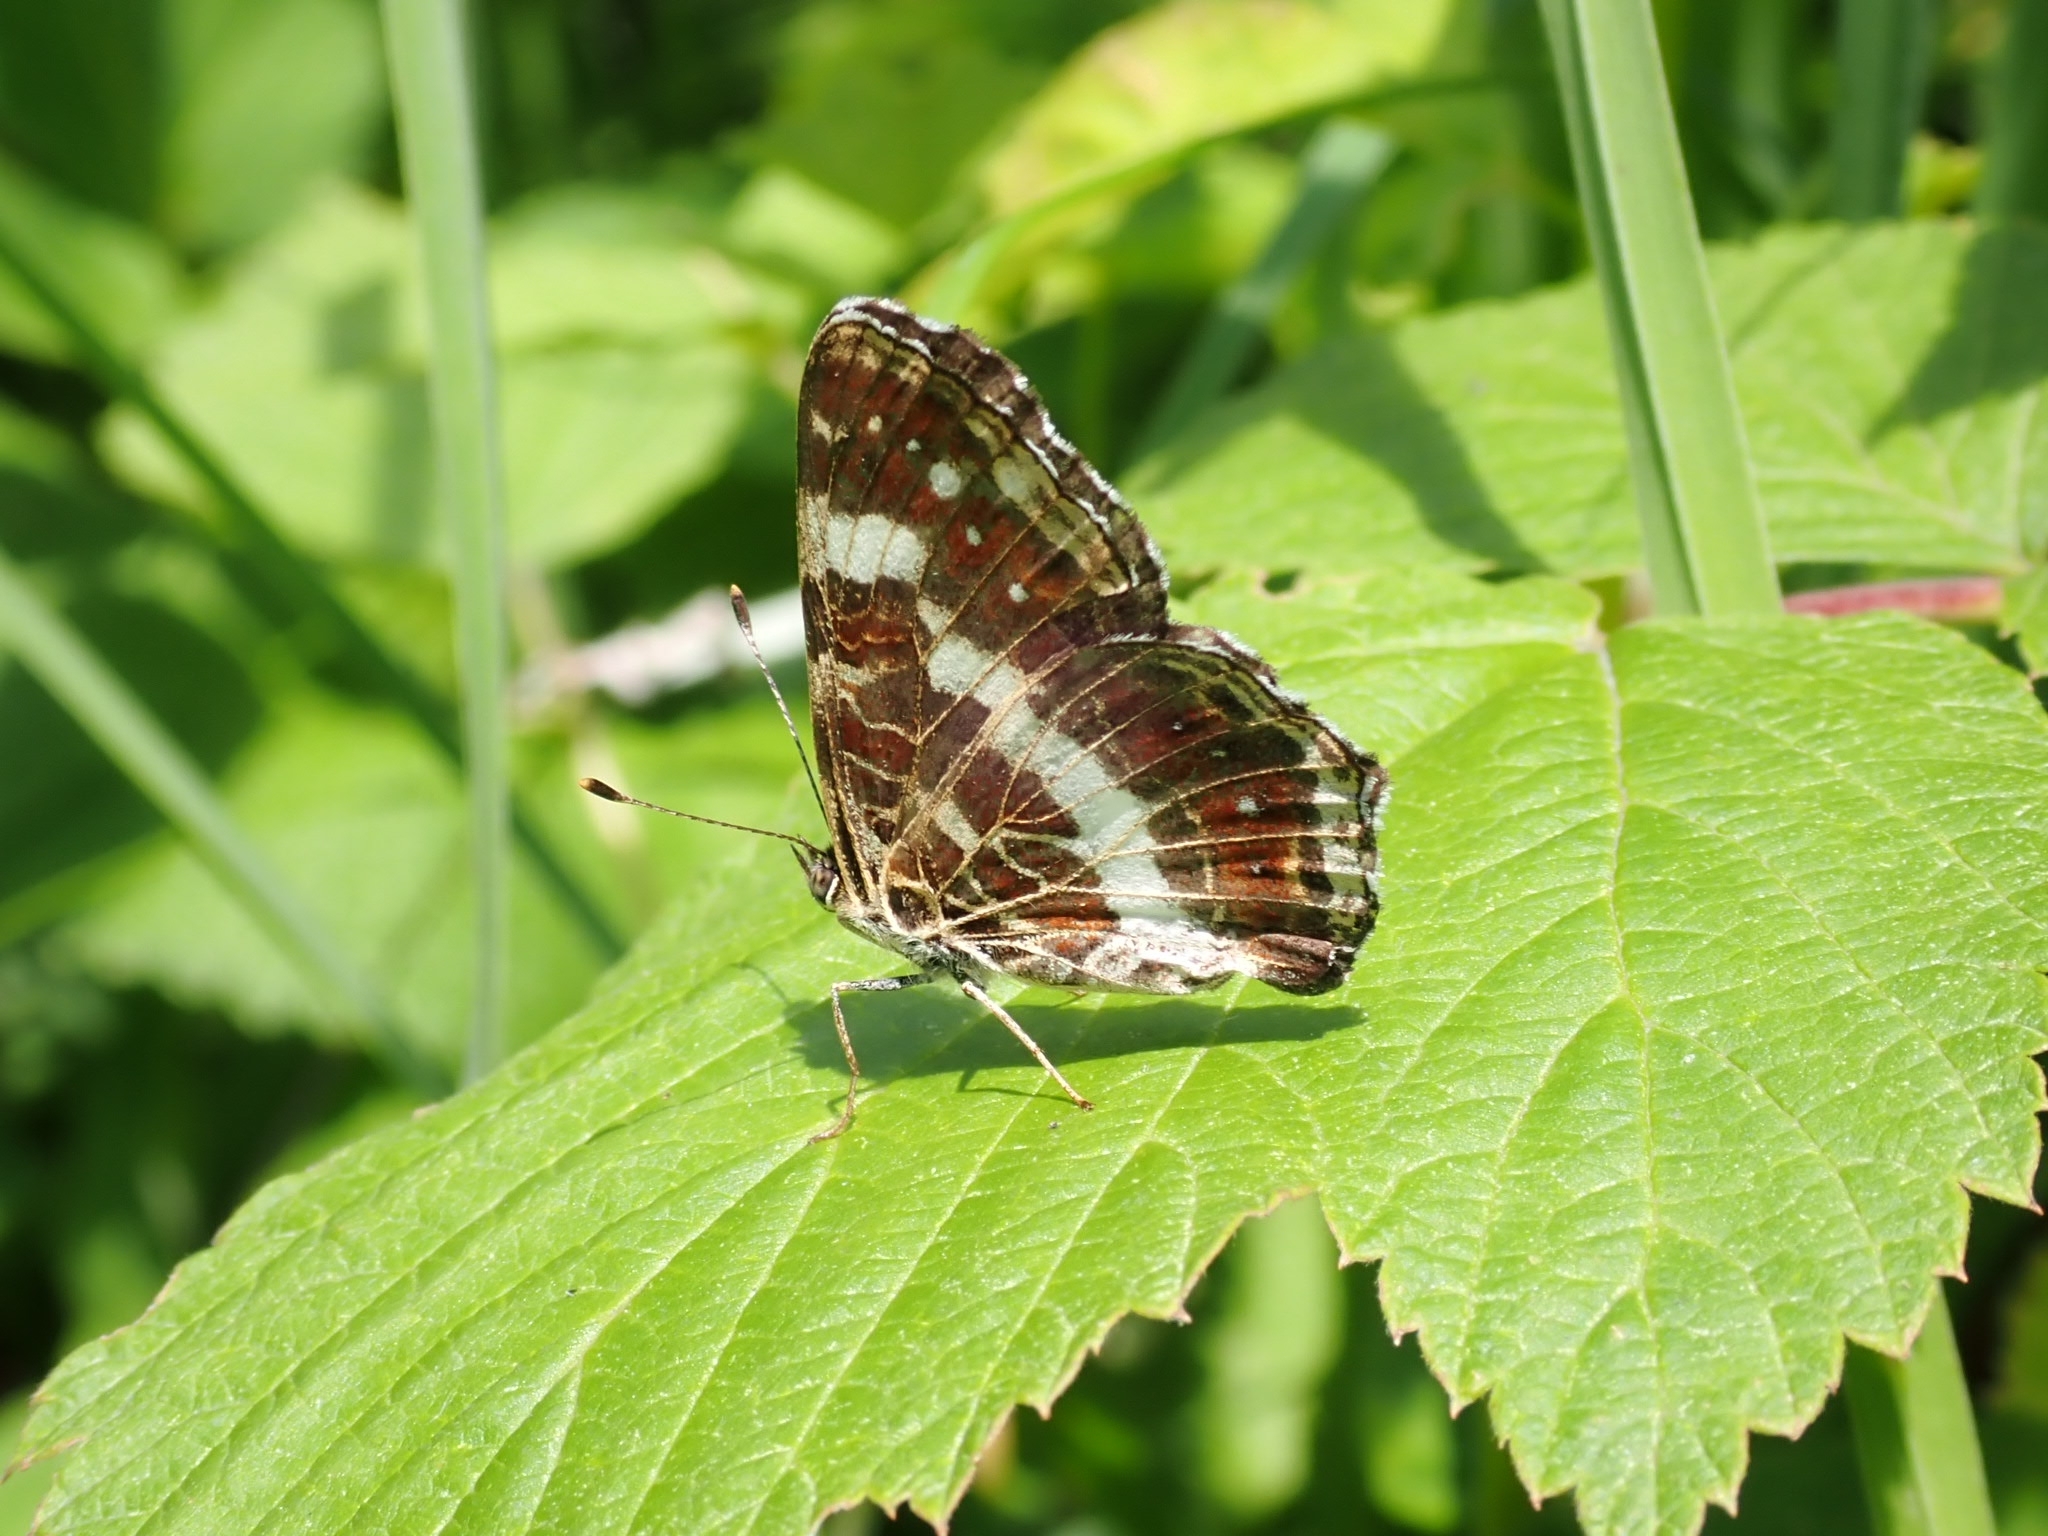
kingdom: Animalia
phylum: Arthropoda
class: Insecta
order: Lepidoptera
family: Nymphalidae
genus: Araschnia
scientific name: Araschnia levana
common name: Map butterfly
